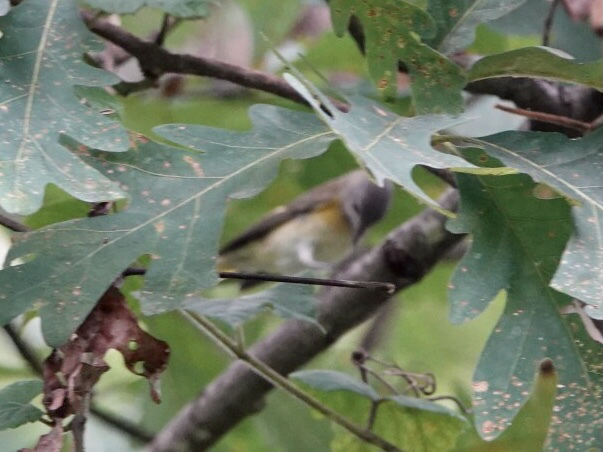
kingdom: Animalia
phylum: Chordata
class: Aves
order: Passeriformes
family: Parulidae
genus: Setophaga
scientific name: Setophaga ruticilla
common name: American redstart
